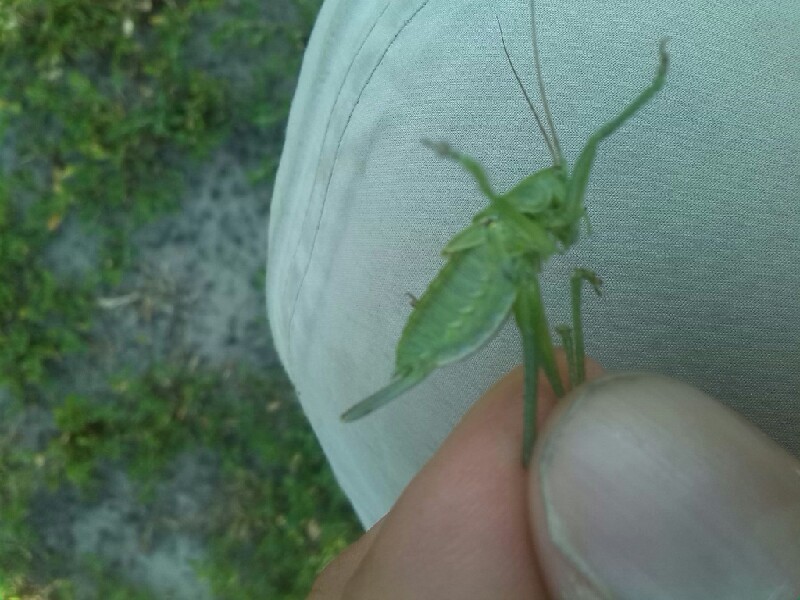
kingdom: Animalia
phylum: Arthropoda
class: Insecta
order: Orthoptera
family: Tettigoniidae
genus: Tettigonia
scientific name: Tettigonia viridissima
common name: Great green bush-cricket
